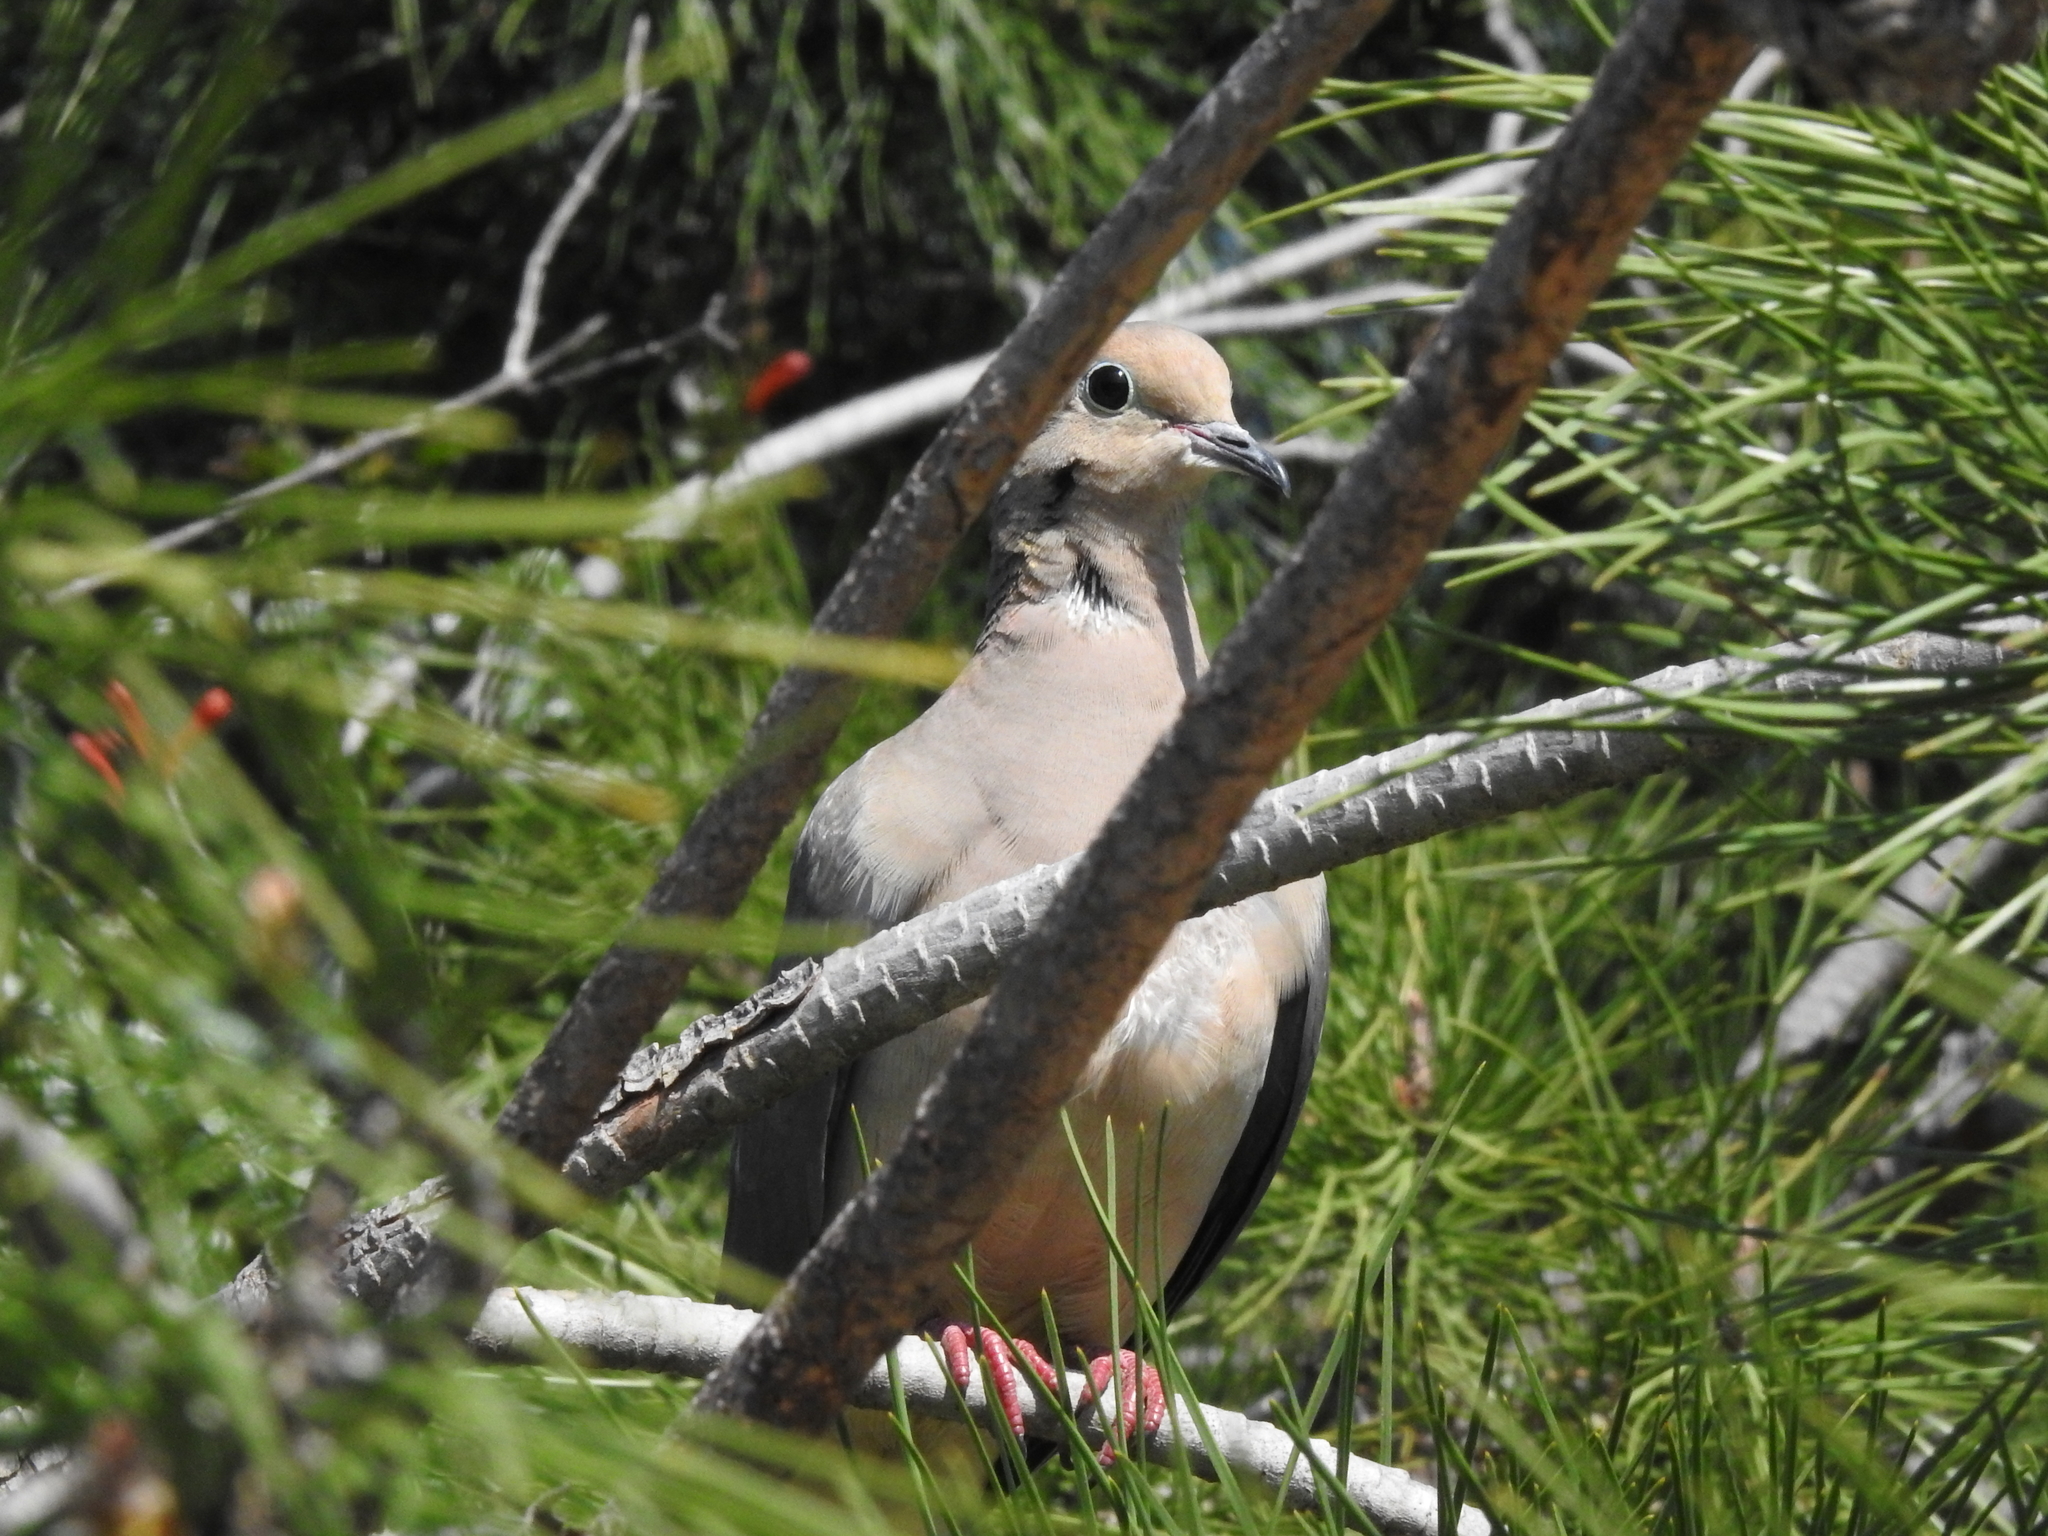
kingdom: Animalia
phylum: Chordata
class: Aves
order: Columbiformes
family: Columbidae
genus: Zenaida
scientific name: Zenaida macroura
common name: Mourning dove
